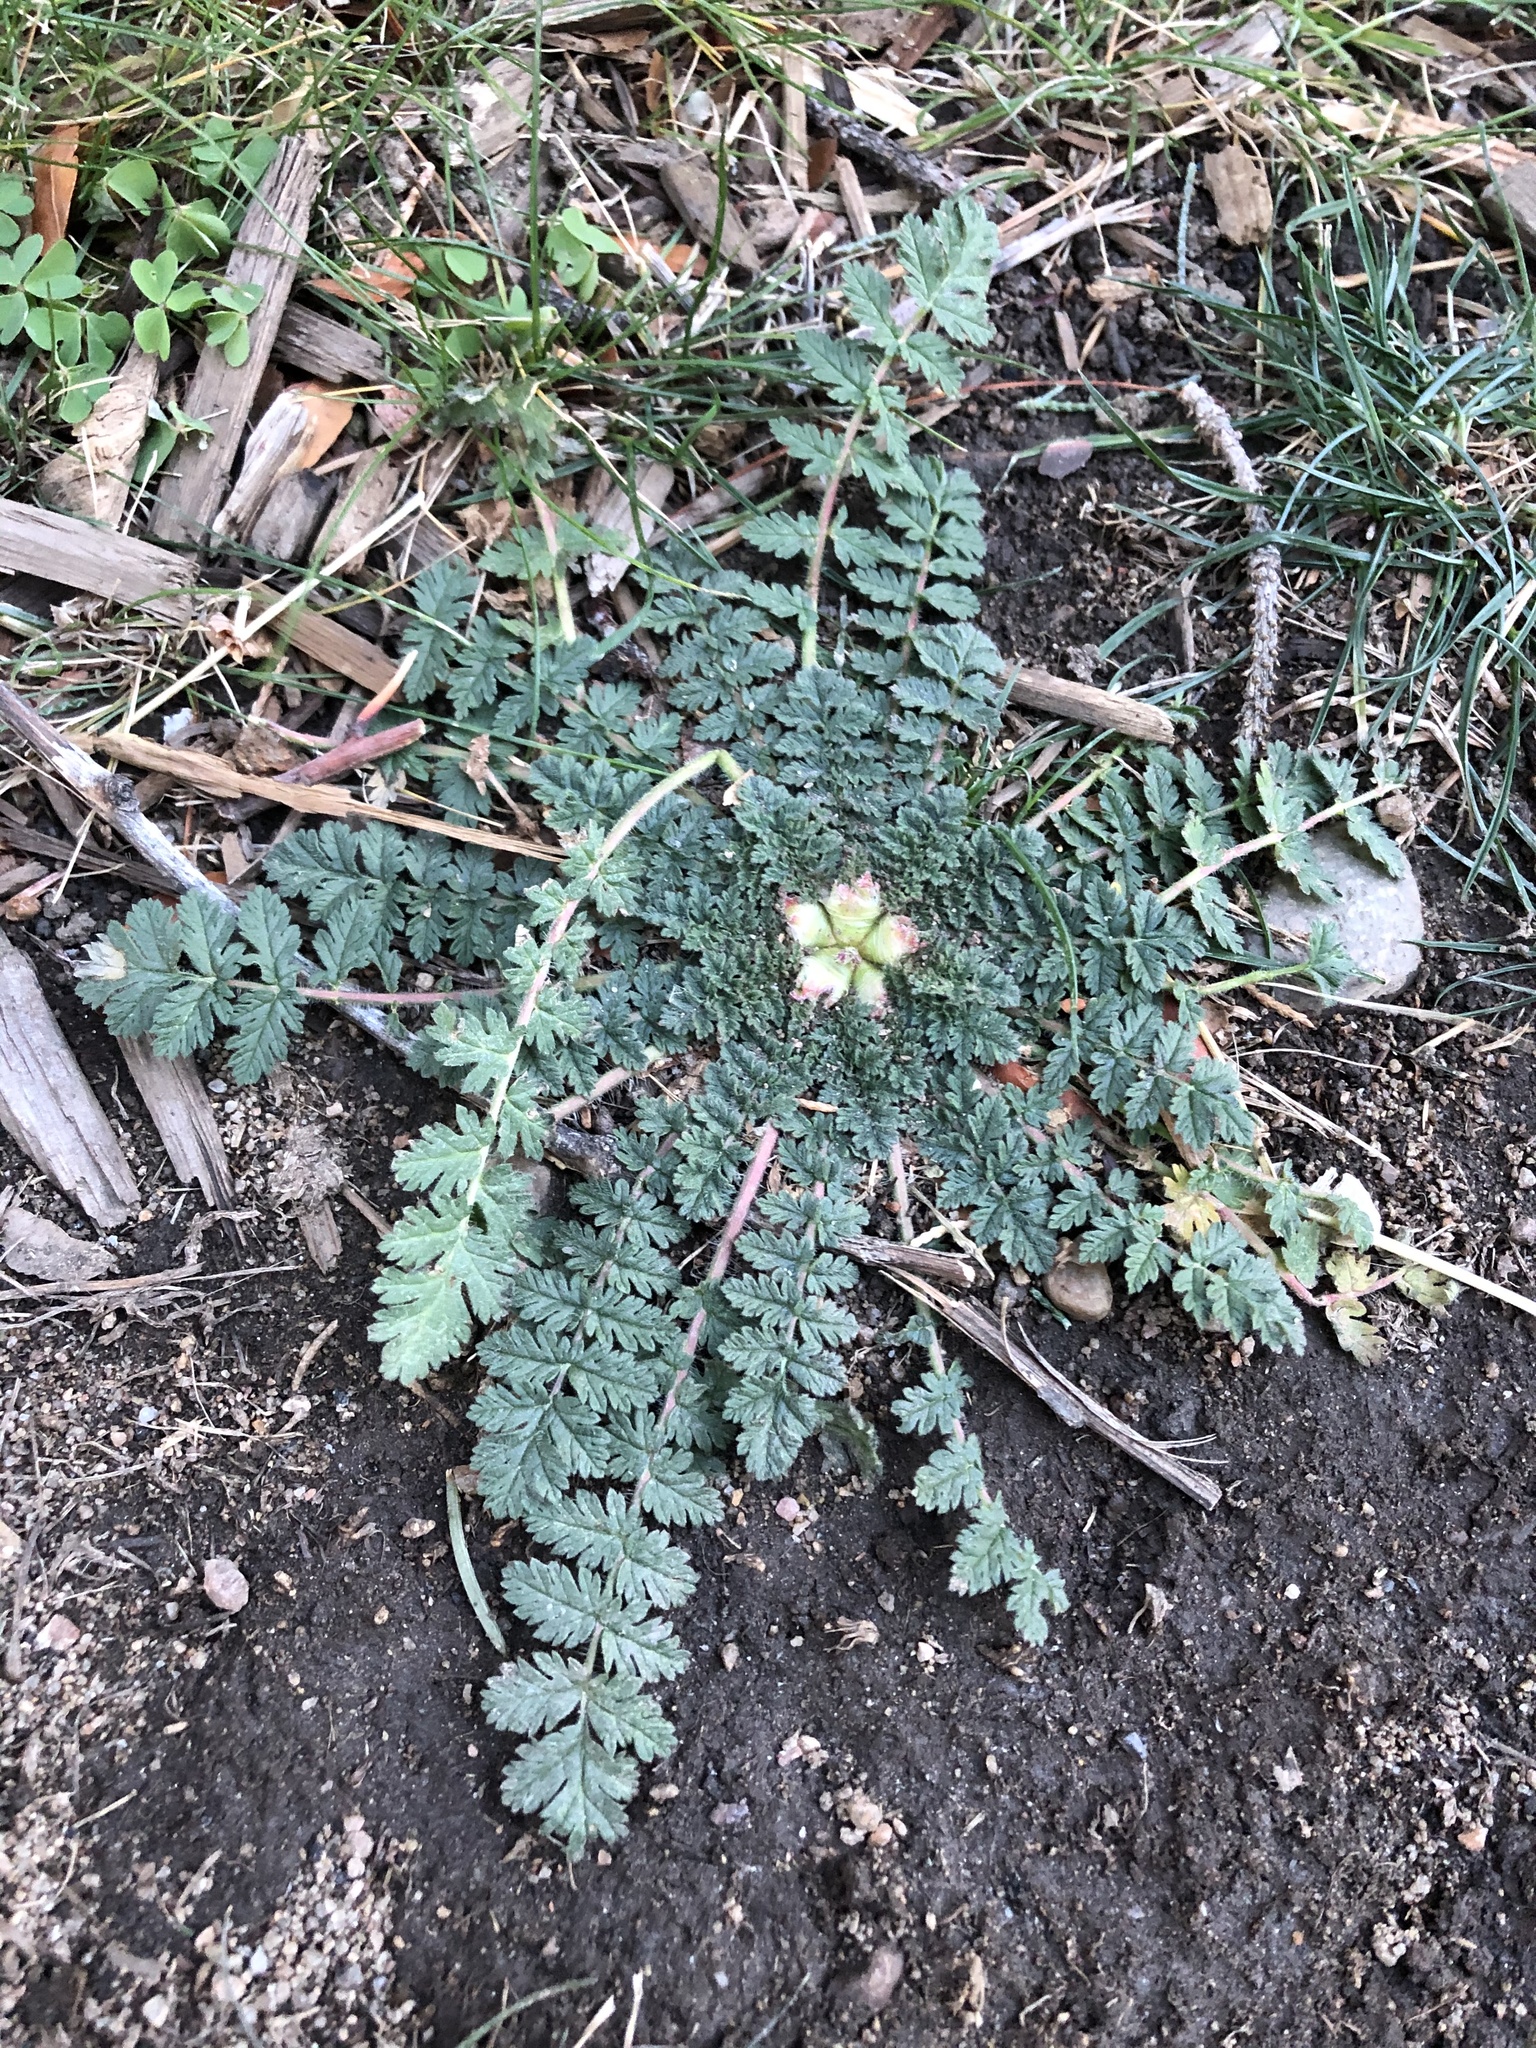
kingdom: Plantae
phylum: Tracheophyta
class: Magnoliopsida
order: Geraniales
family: Geraniaceae
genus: Erodium
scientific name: Erodium cicutarium
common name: Common stork's-bill
